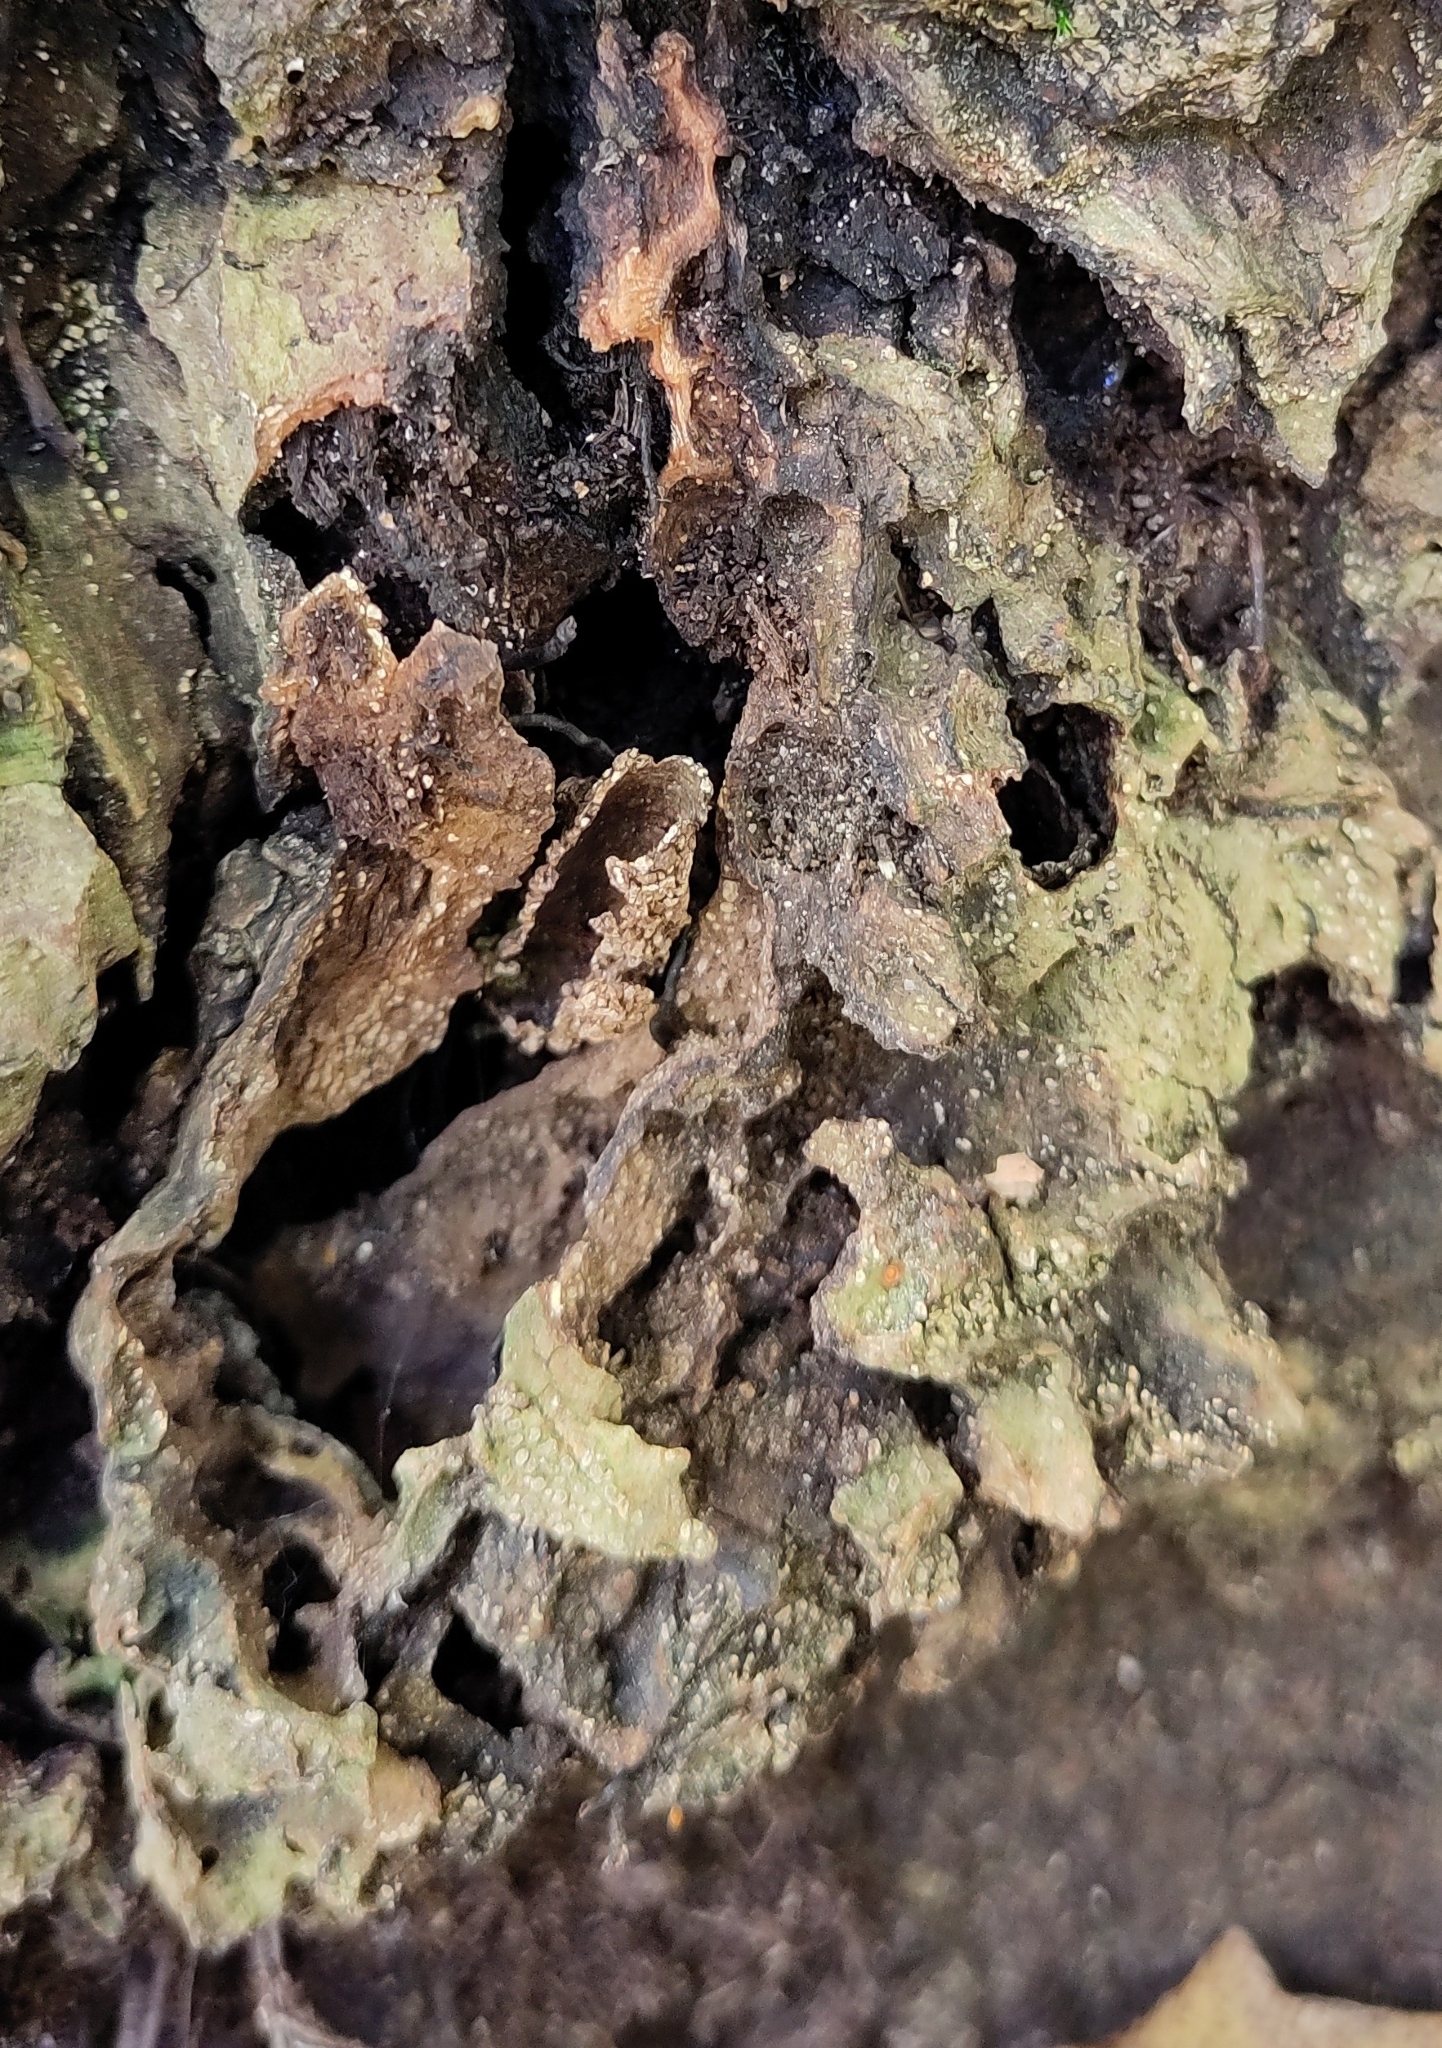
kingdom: Animalia
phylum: Arthropoda
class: Insecta
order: Lepidoptera
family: Sesiidae
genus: Sesia
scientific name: Sesia apiformis
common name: Hornet moth
